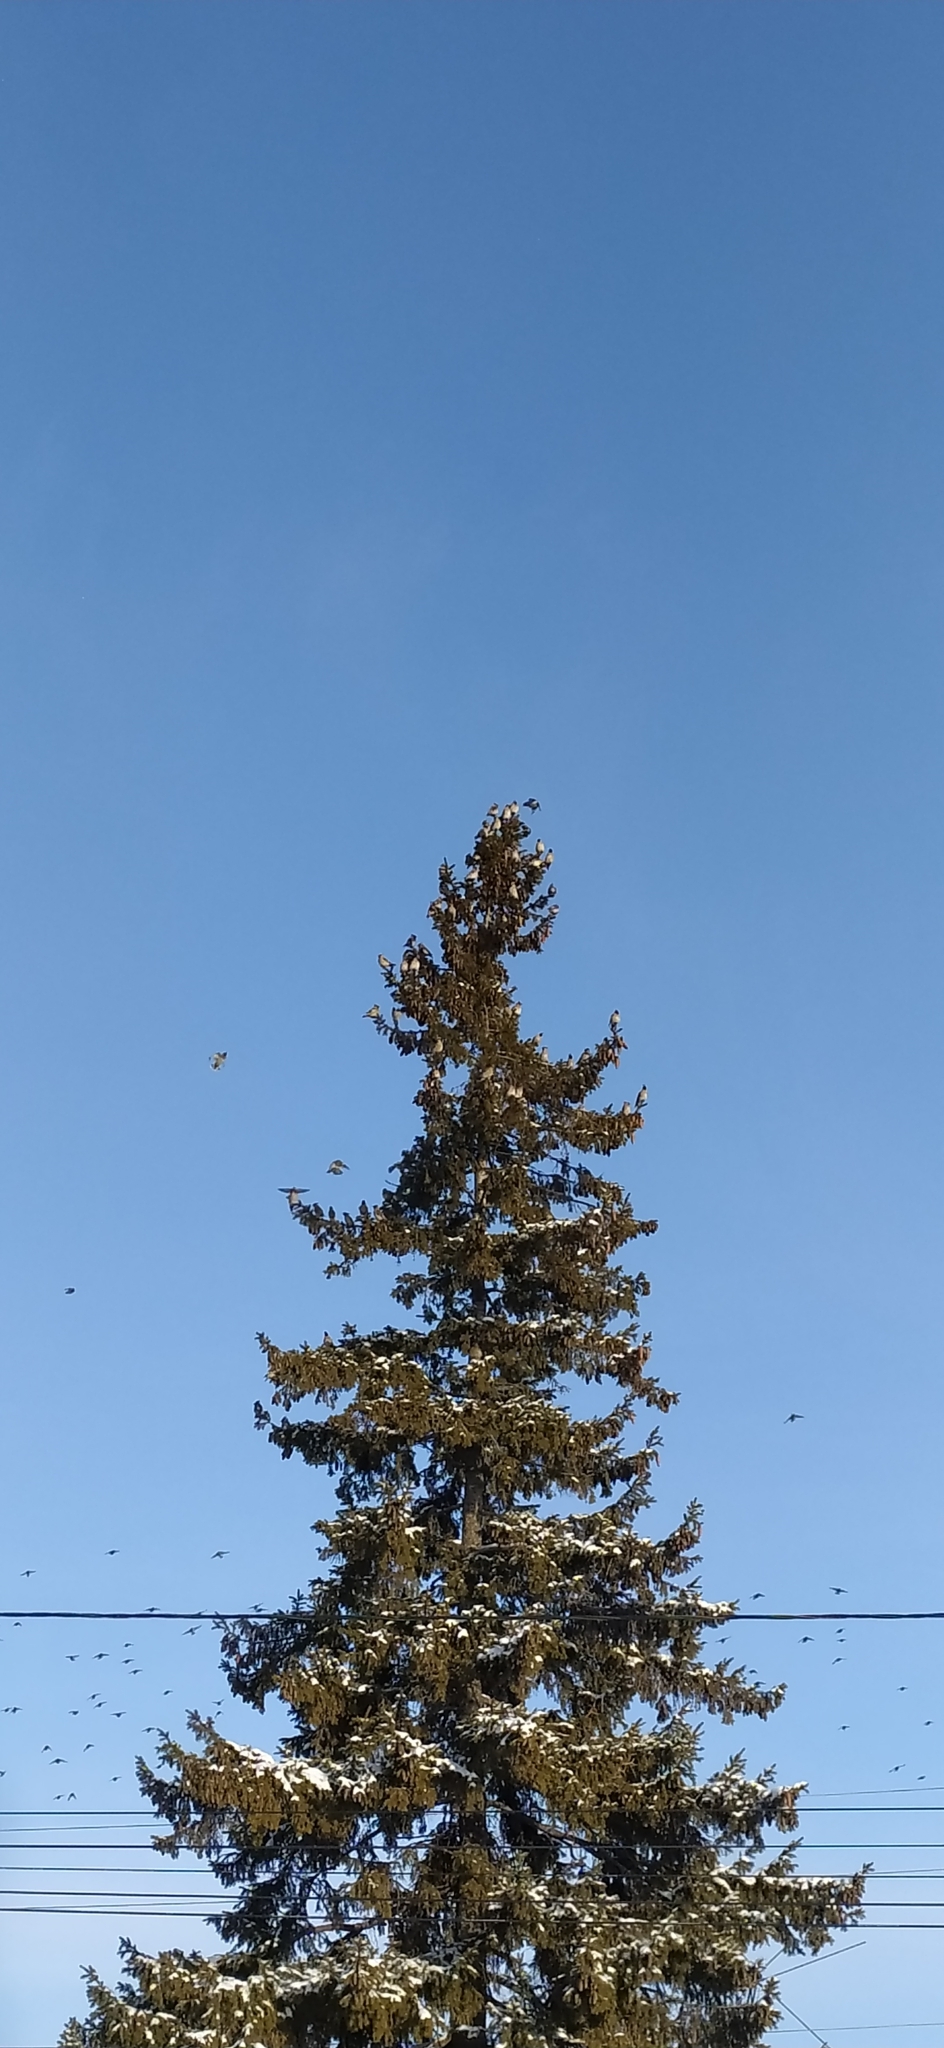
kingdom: Animalia
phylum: Chordata
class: Aves
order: Passeriformes
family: Bombycillidae
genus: Bombycilla
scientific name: Bombycilla garrulus
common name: Bohemian waxwing
